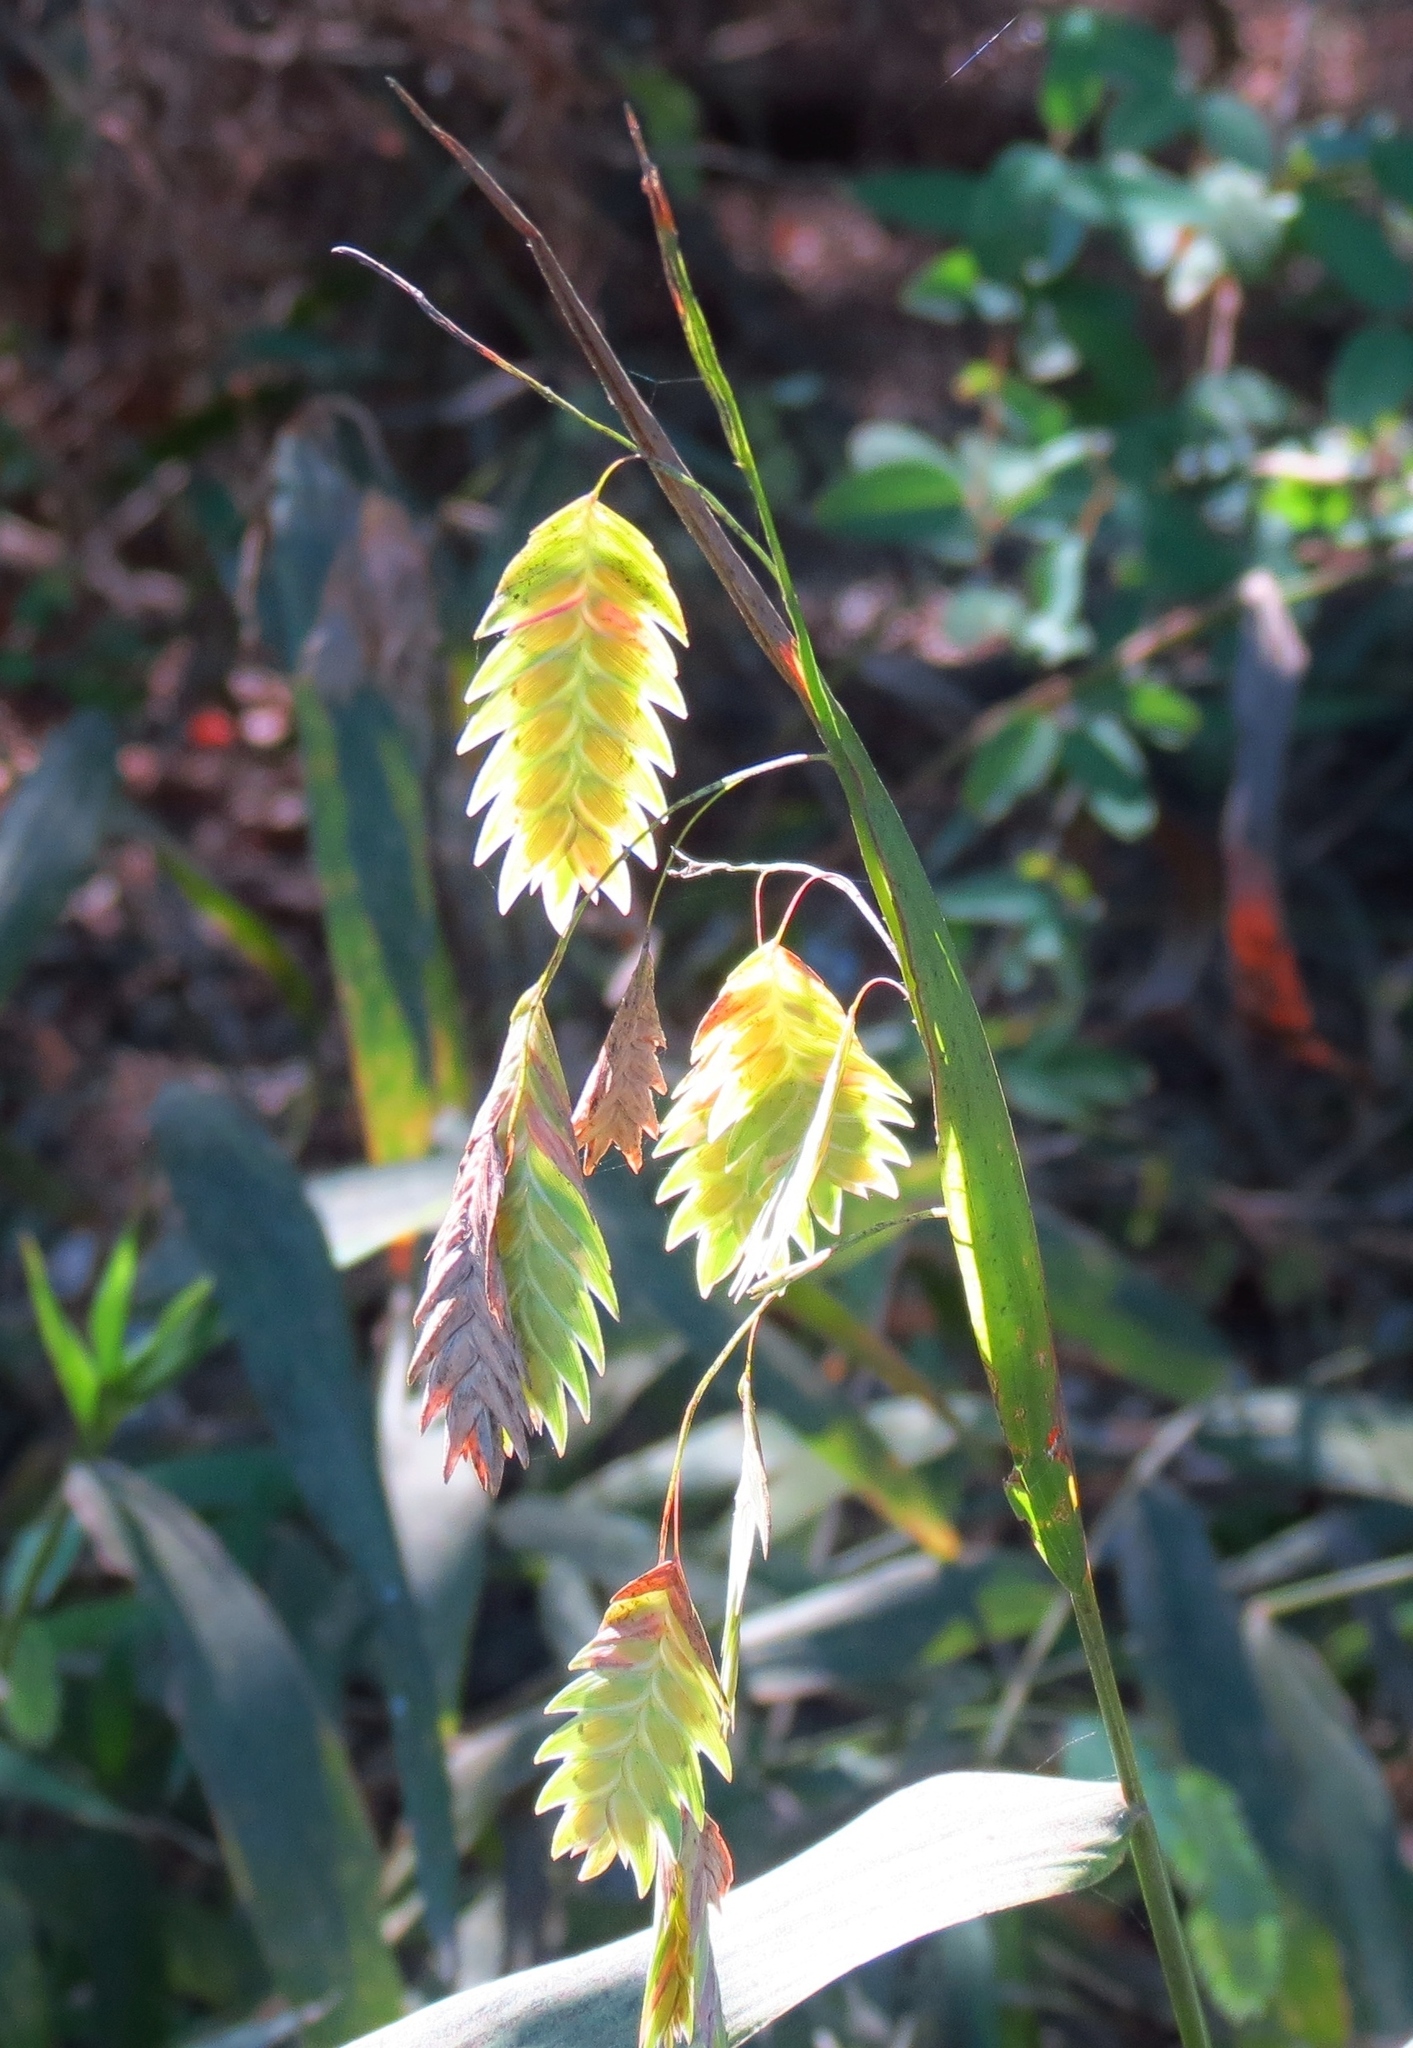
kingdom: Plantae
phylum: Tracheophyta
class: Liliopsida
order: Poales
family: Poaceae
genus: Chasmanthium
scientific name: Chasmanthium latifolium
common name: Broad-leaved chasmanthium
